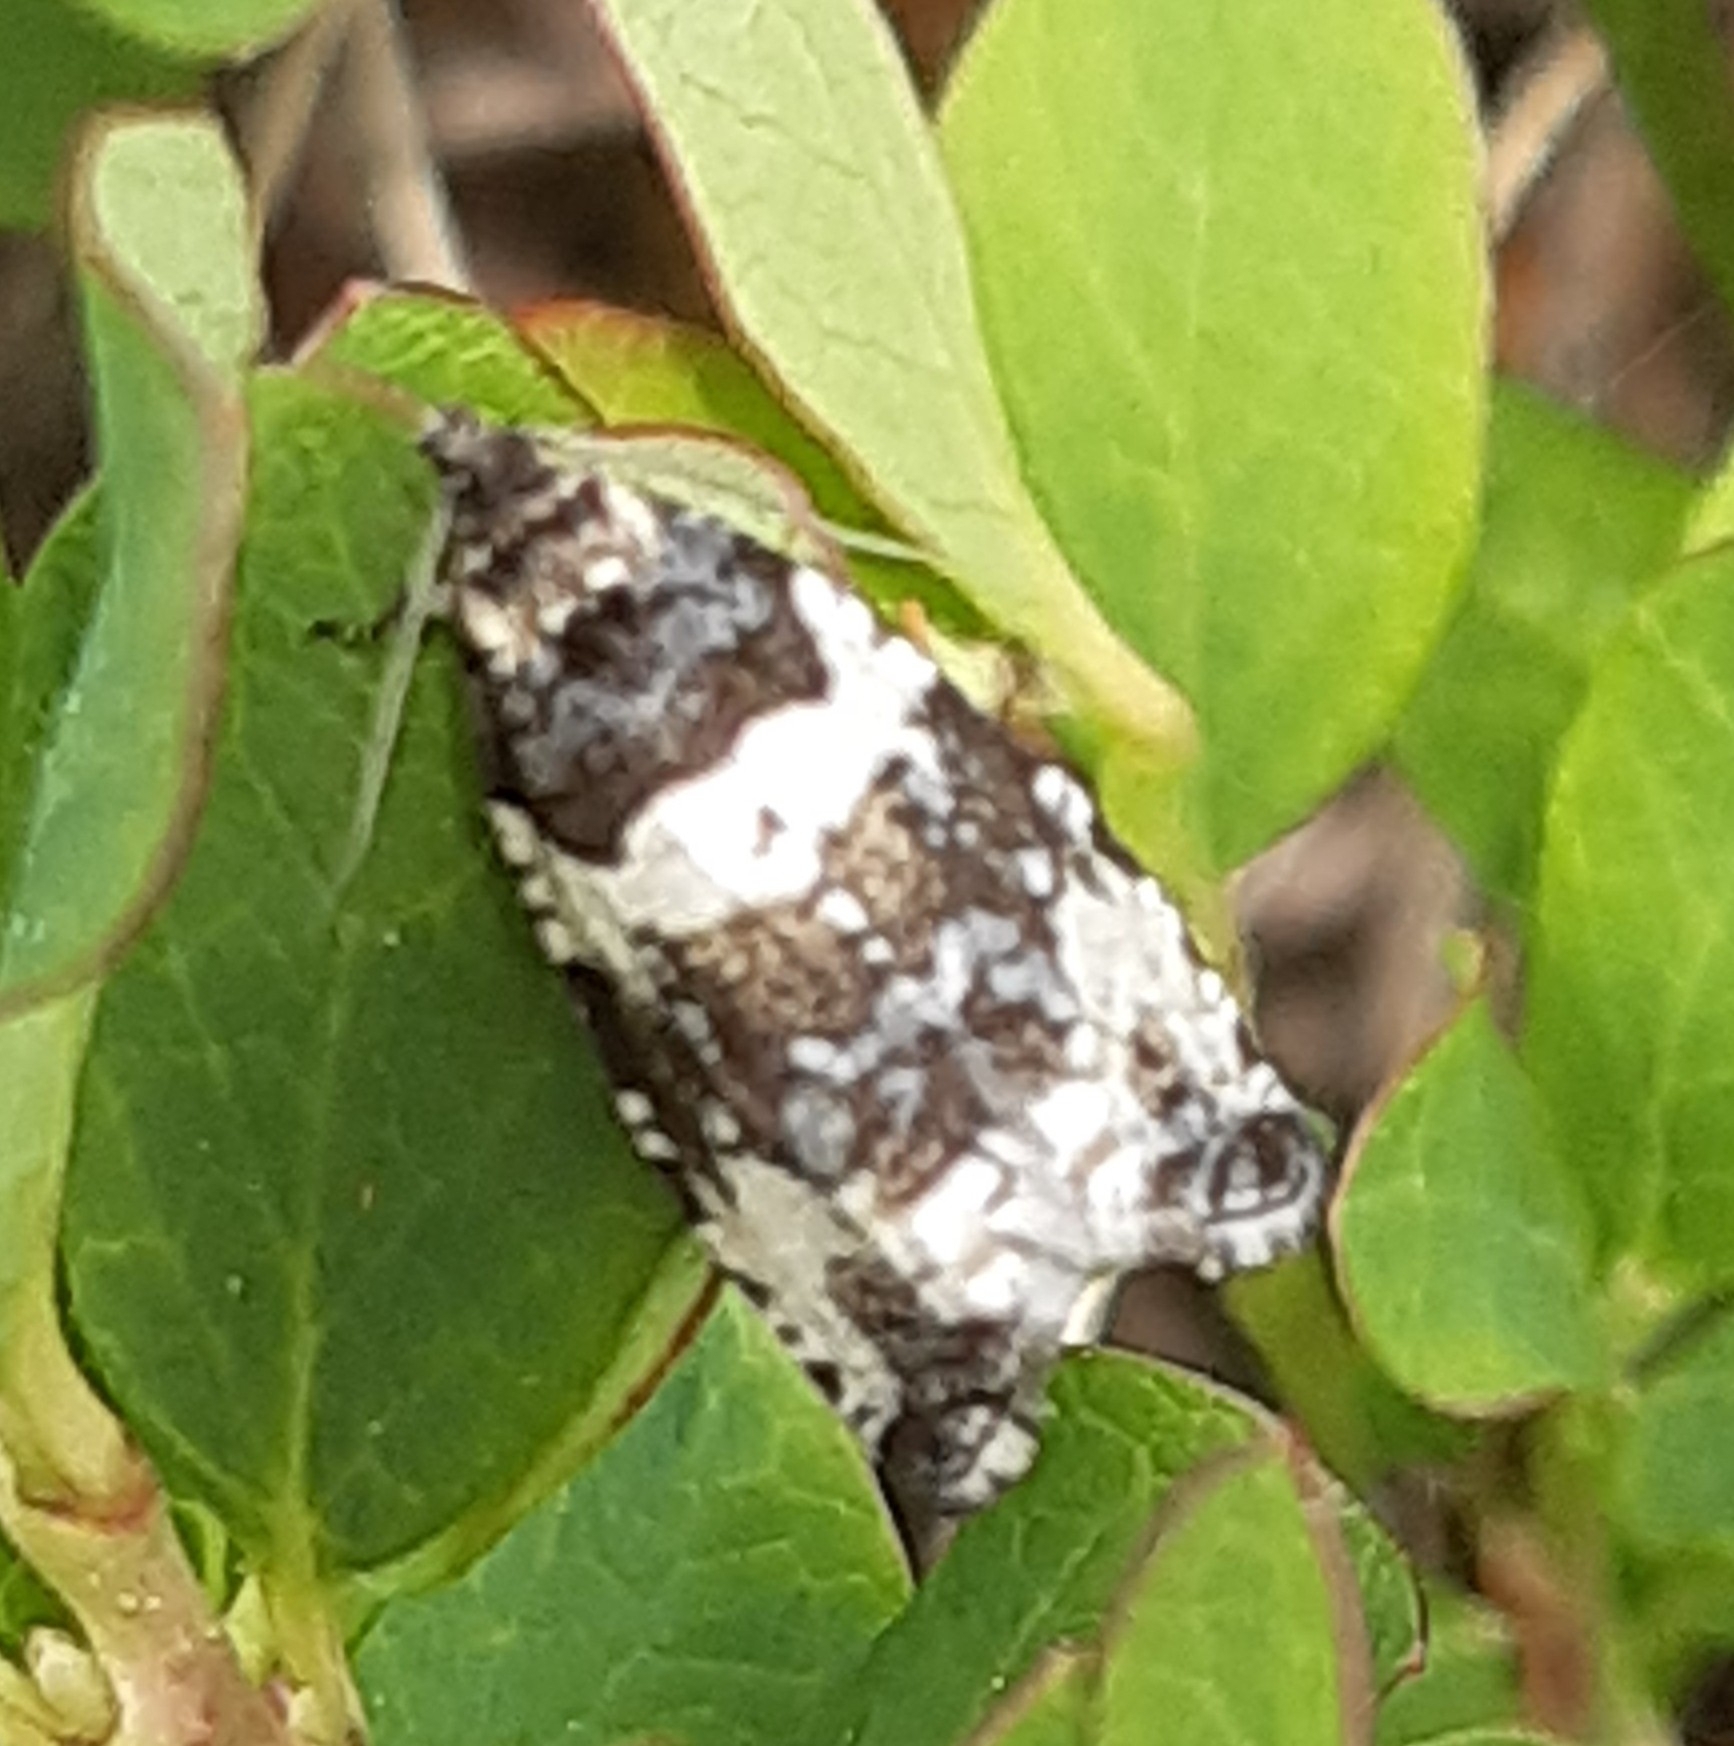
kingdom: Animalia
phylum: Arthropoda
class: Insecta
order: Lepidoptera
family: Tortricidae
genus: Argyroploce
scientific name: Argyroploce bipunctana
